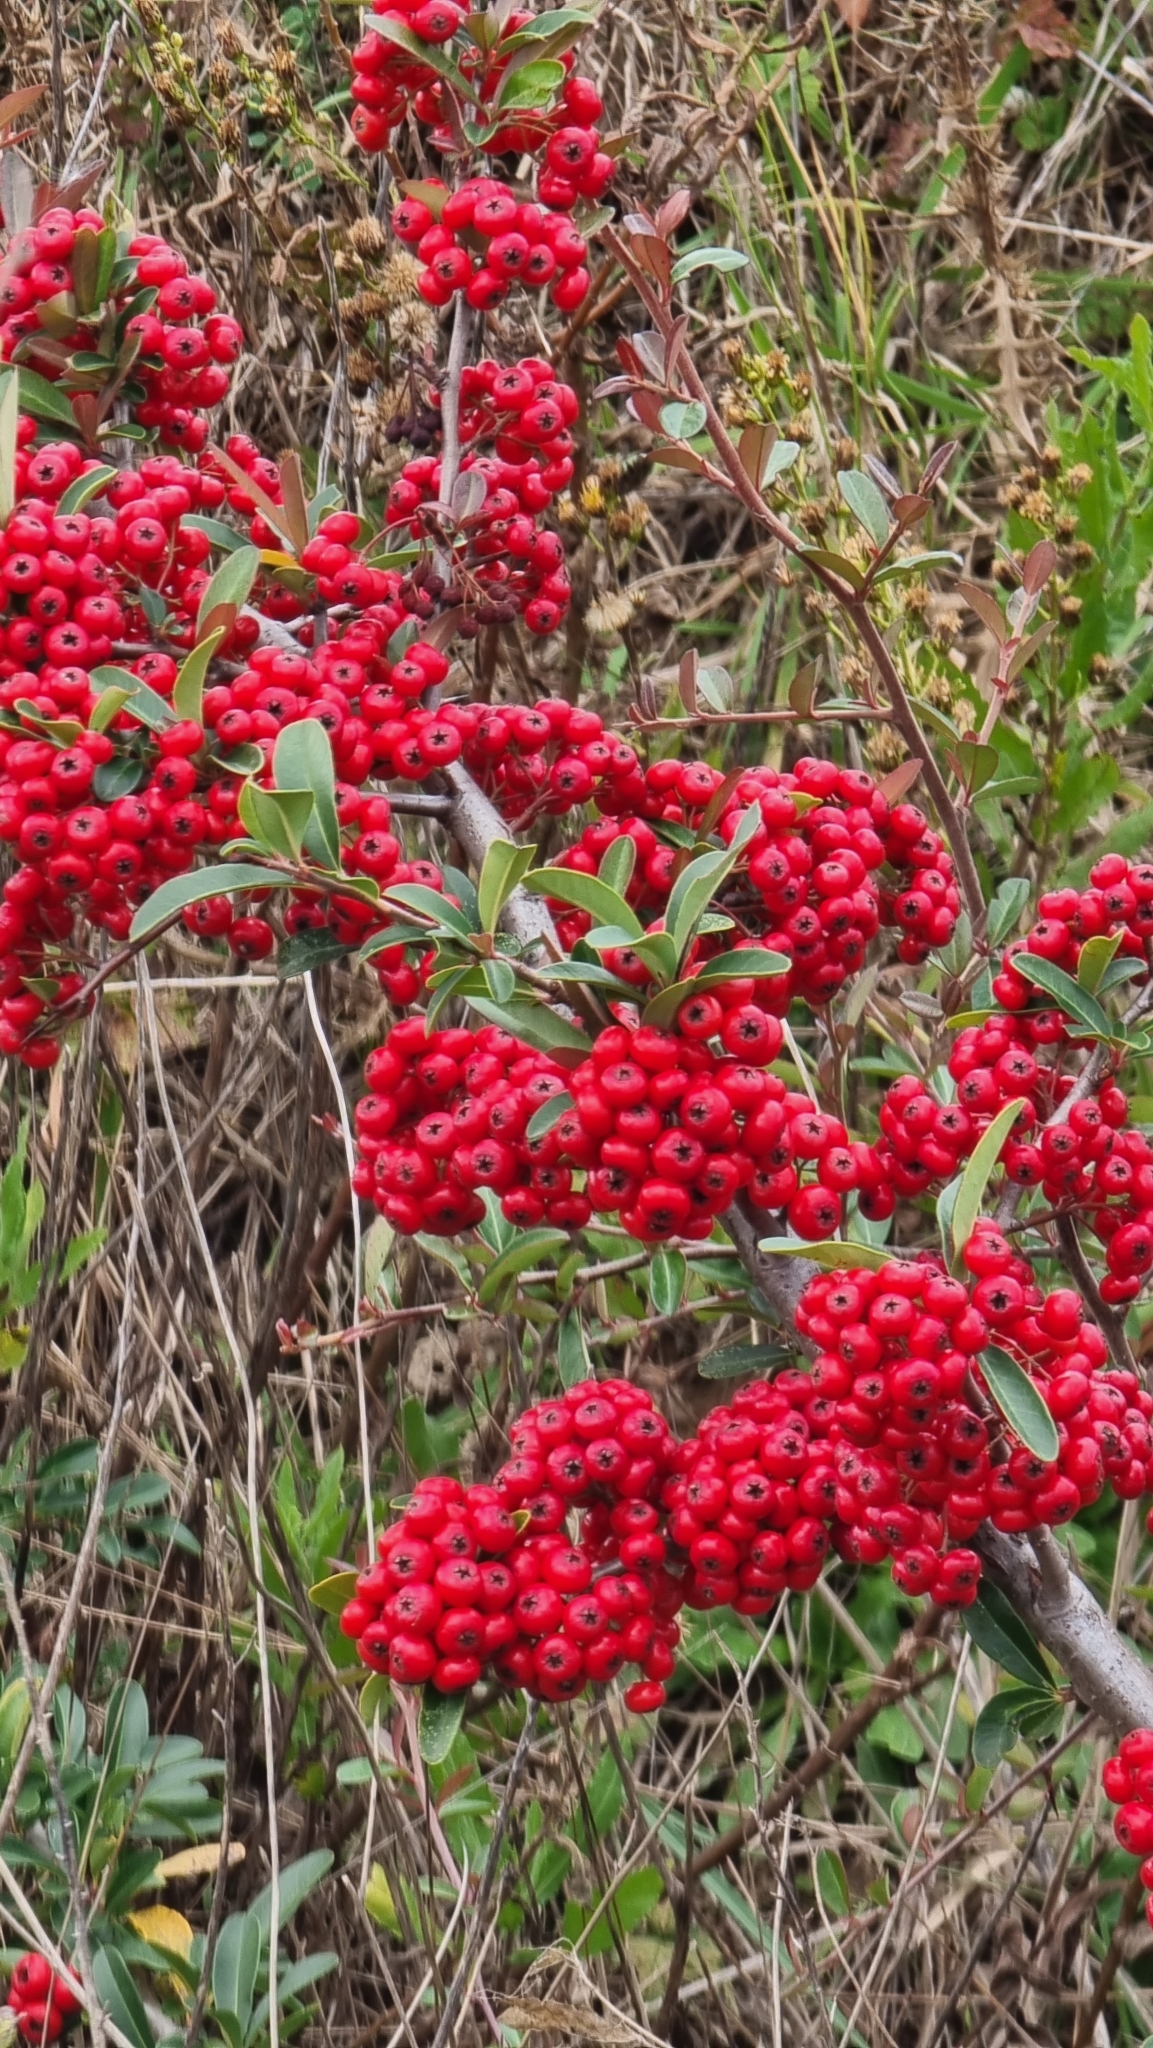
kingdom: Plantae
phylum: Tracheophyta
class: Magnoliopsida
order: Rosales
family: Rosaceae
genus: Pyracantha
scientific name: Pyracantha coccinea
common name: Firethorn
